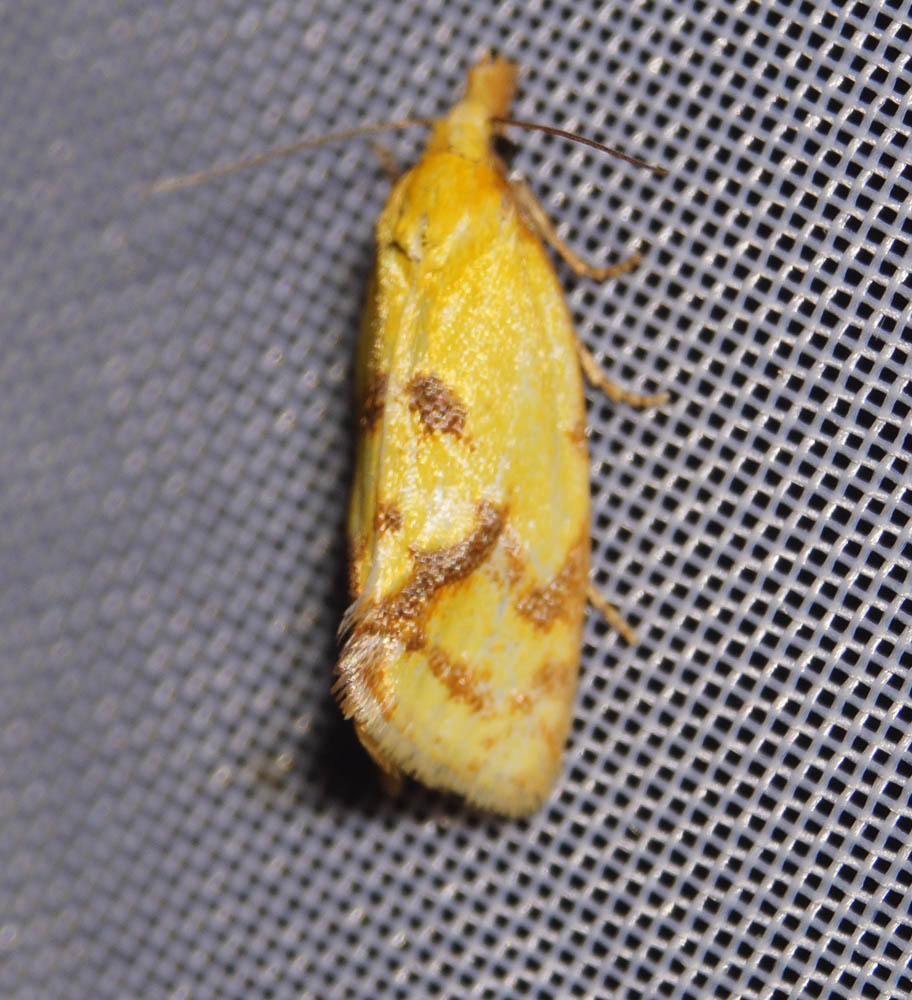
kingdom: Animalia
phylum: Arthropoda
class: Insecta
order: Lepidoptera
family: Tortricidae
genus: Agapeta
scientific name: Agapeta hamana
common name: Common yellow conch
